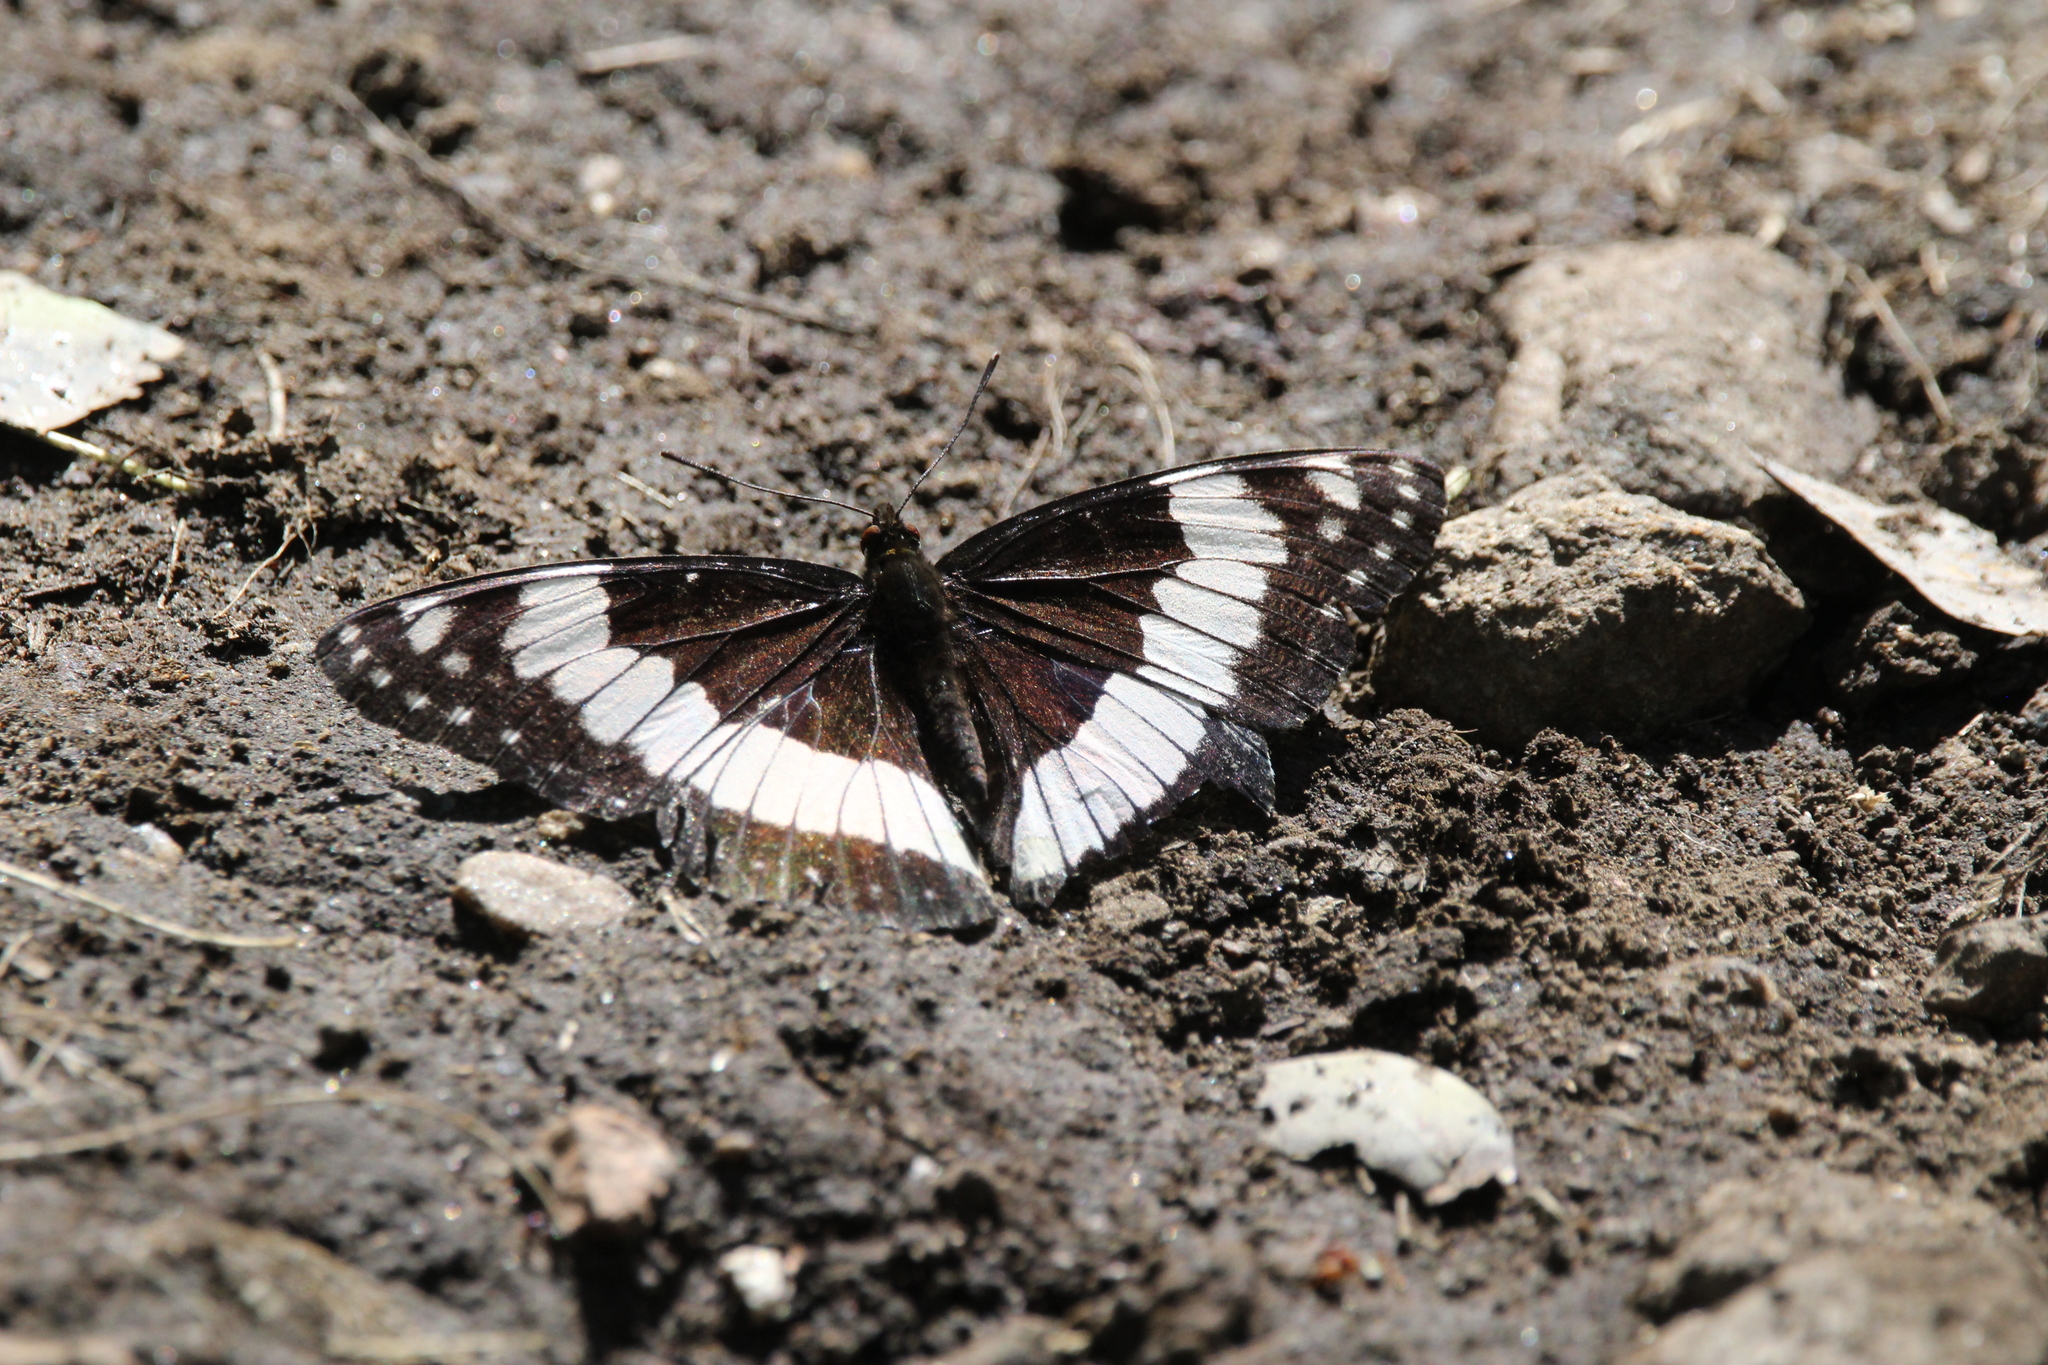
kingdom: Animalia
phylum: Arthropoda
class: Insecta
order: Lepidoptera
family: Nymphalidae
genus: Limenitis
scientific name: Limenitis weidemeyerii
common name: Weidemeyer's admiral
